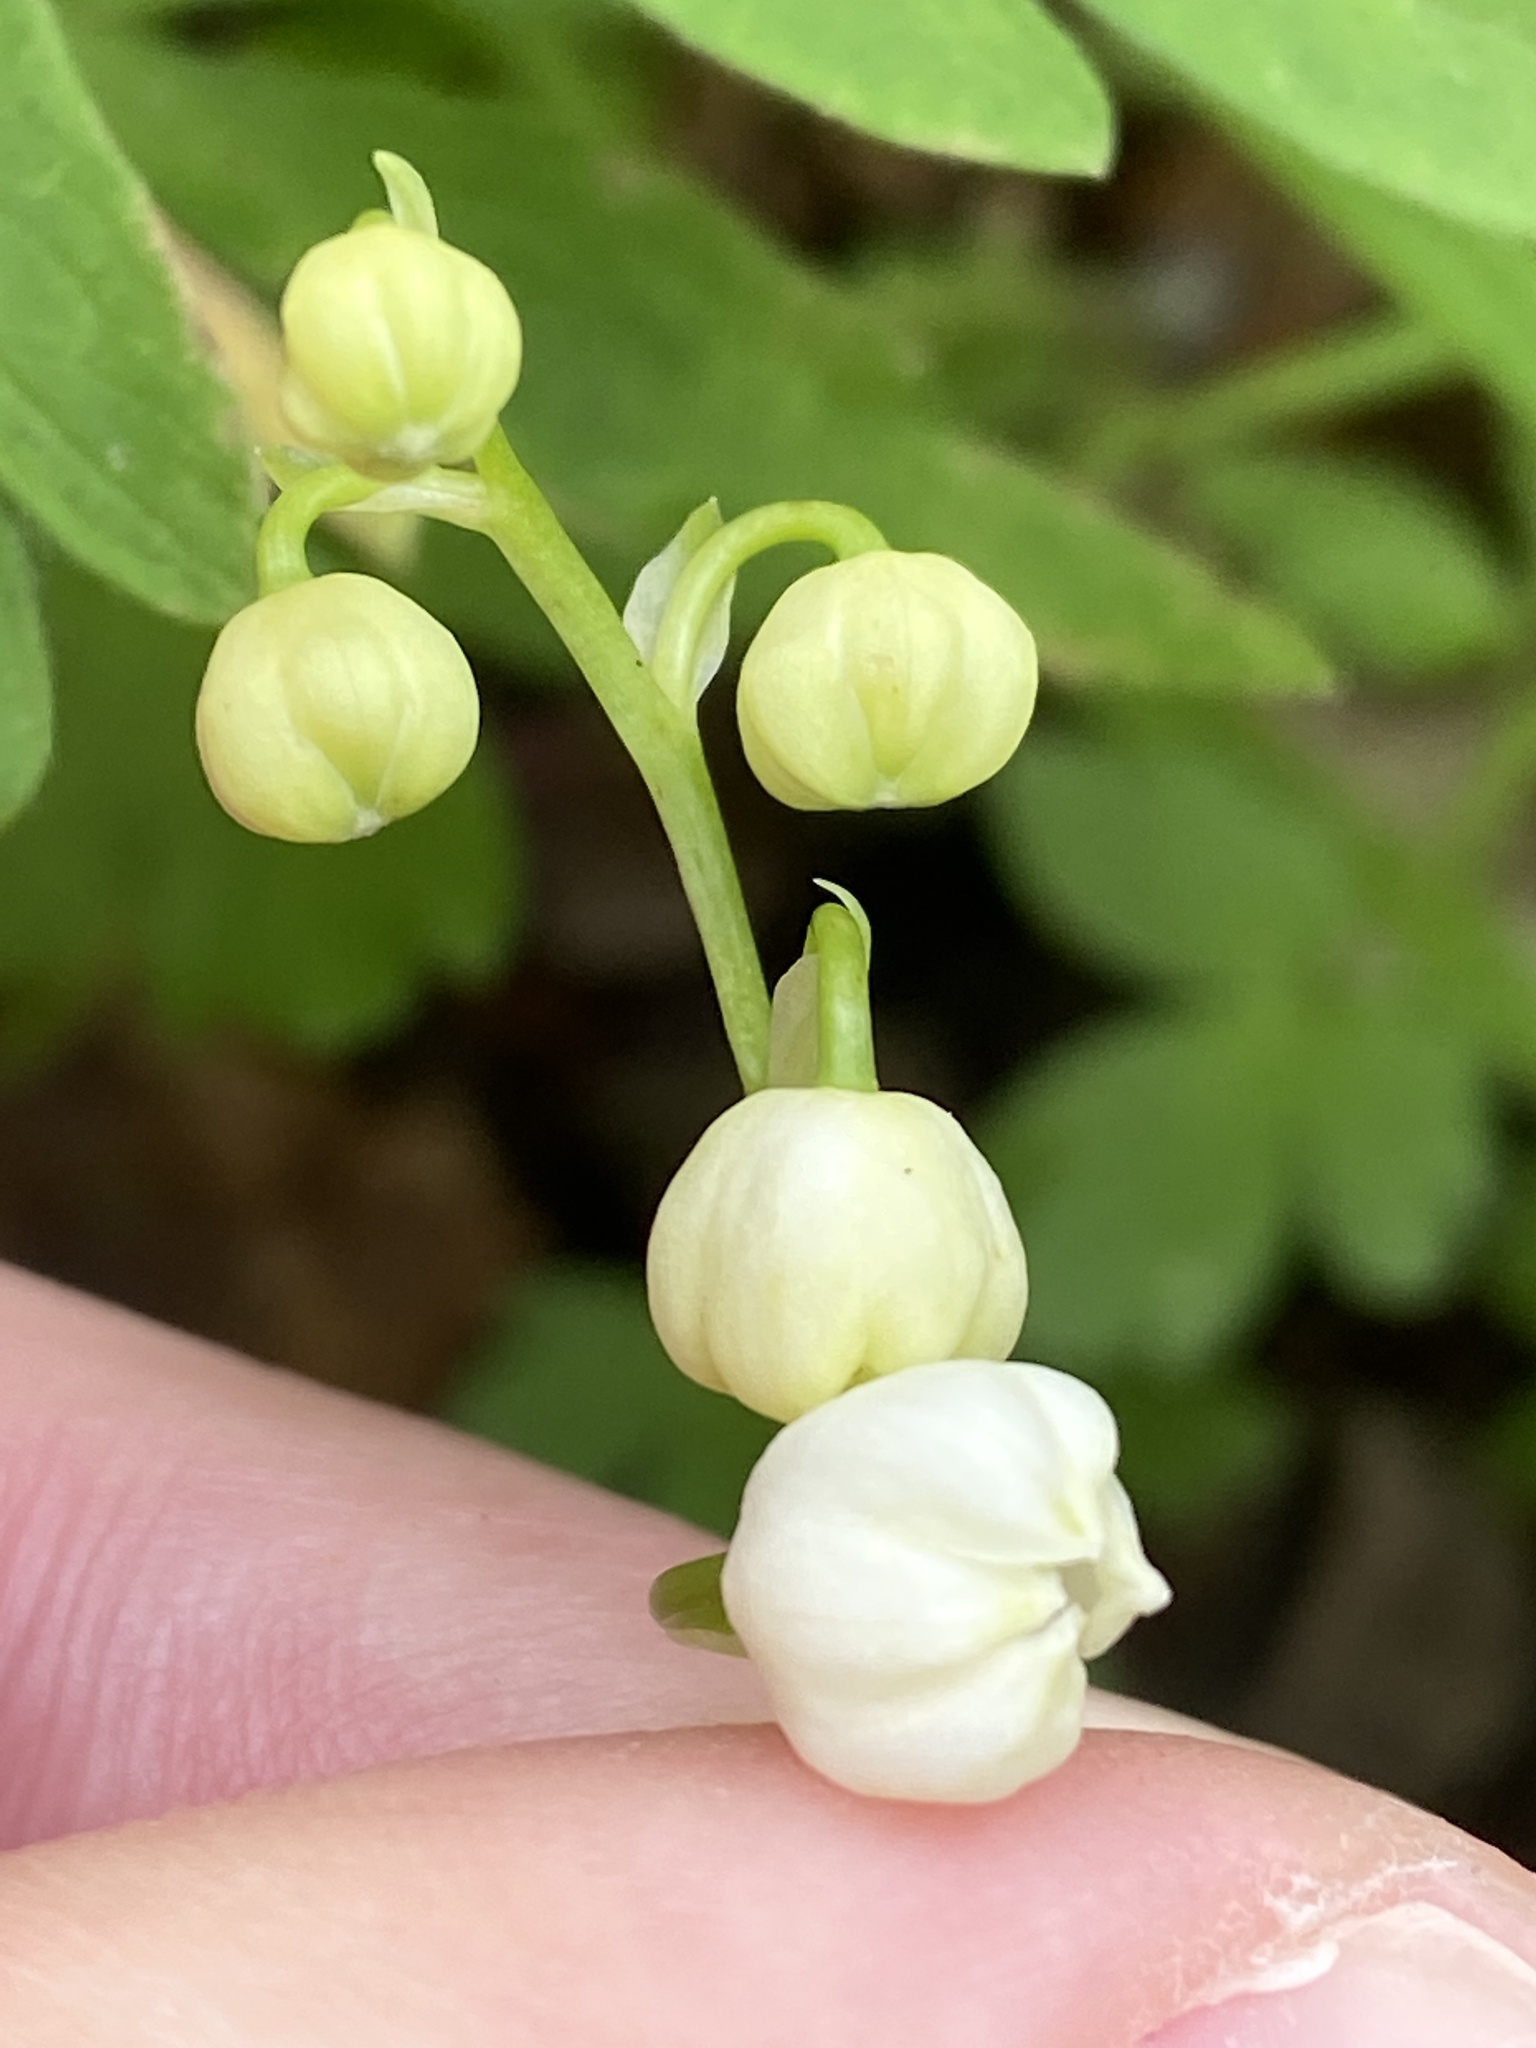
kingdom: Plantae
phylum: Tracheophyta
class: Liliopsida
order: Asparagales
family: Asparagaceae
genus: Convallaria
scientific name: Convallaria majalis
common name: Lily-of-the-valley
